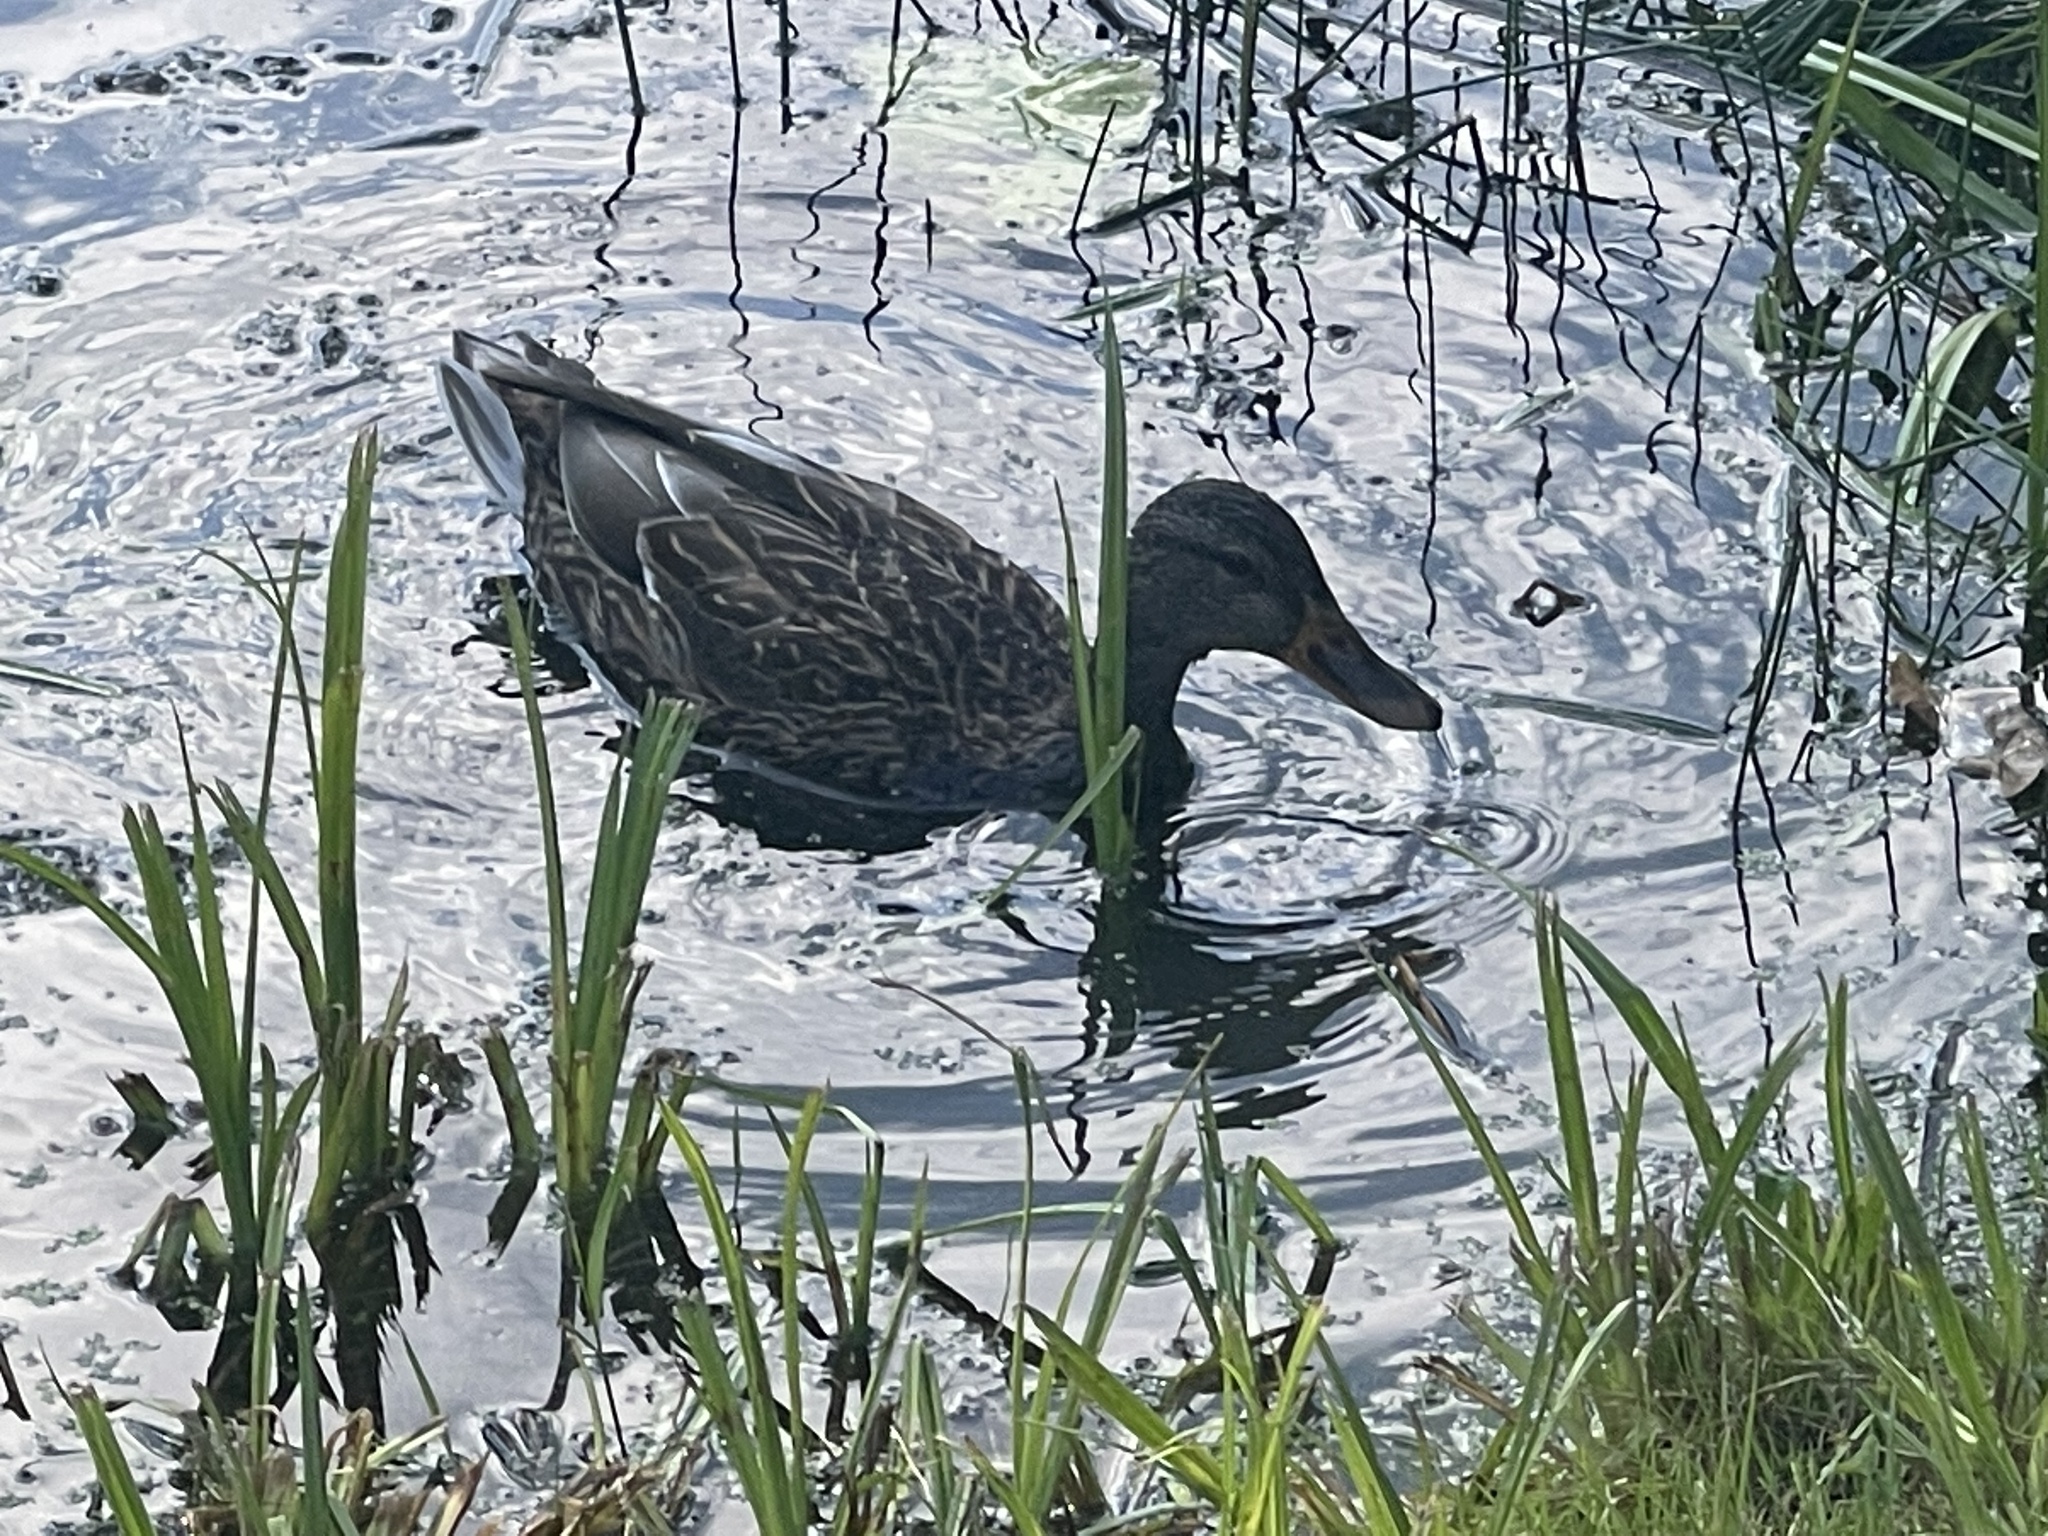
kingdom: Animalia
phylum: Chordata
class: Aves
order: Anseriformes
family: Anatidae
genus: Anas
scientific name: Anas platyrhynchos
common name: Mallard
